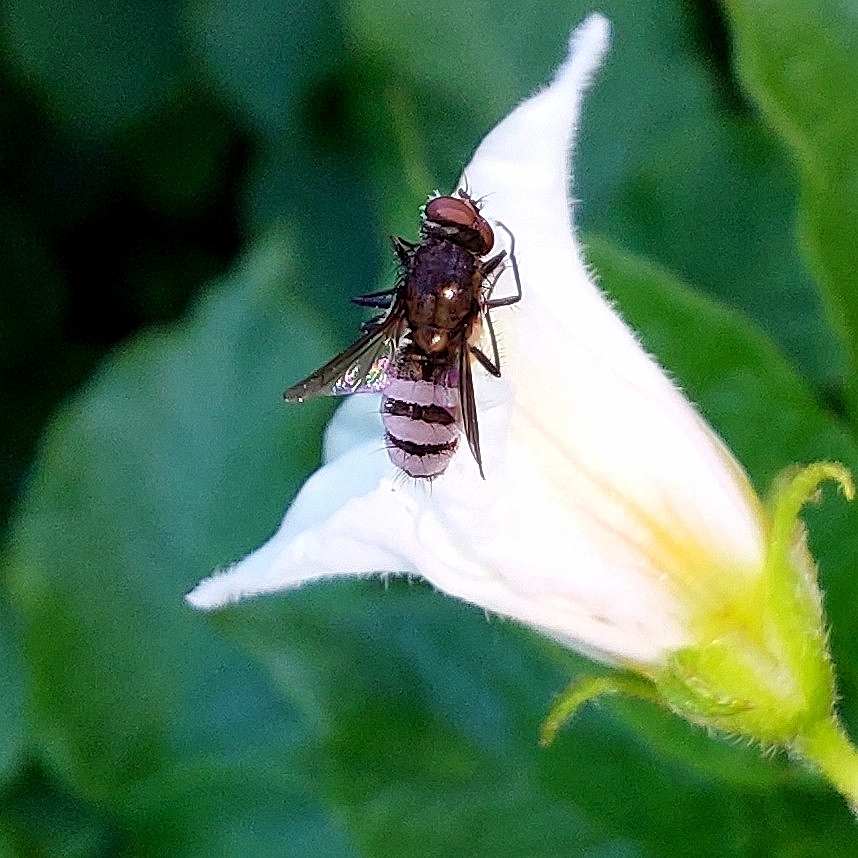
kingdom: Fungi
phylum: Entomophthoromycota
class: Entomophthoromycetes
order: Entomophthorales
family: Entomophthoraceae
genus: Entomophthora
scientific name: Entomophthora
